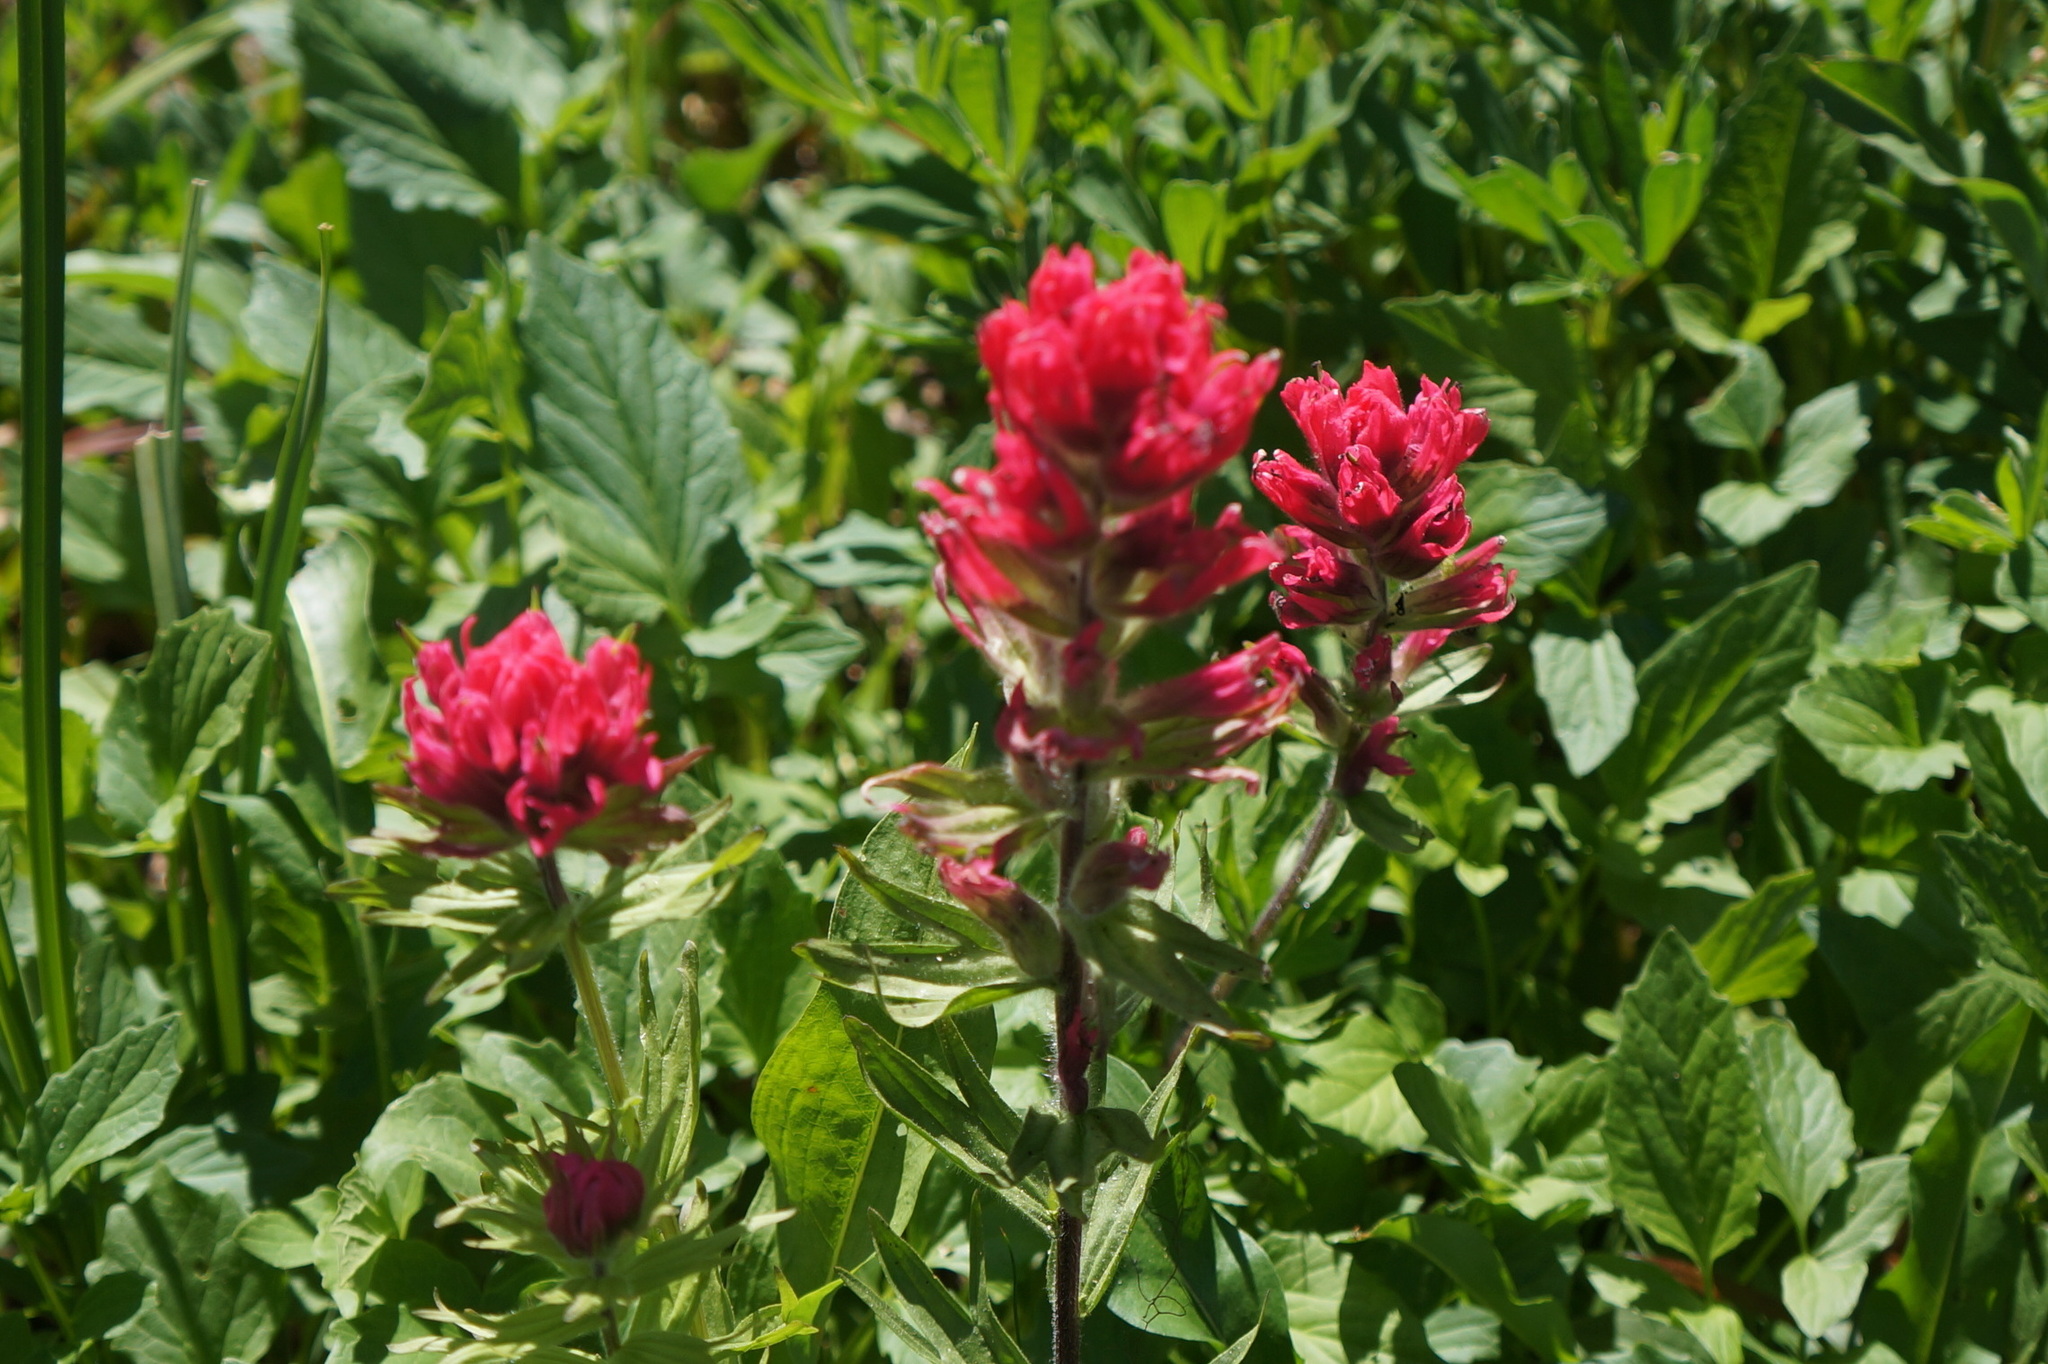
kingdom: Plantae
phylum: Tracheophyta
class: Magnoliopsida
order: Lamiales
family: Orobanchaceae
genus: Castilleja
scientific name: Castilleja parviflora
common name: Mountain paintbrush
